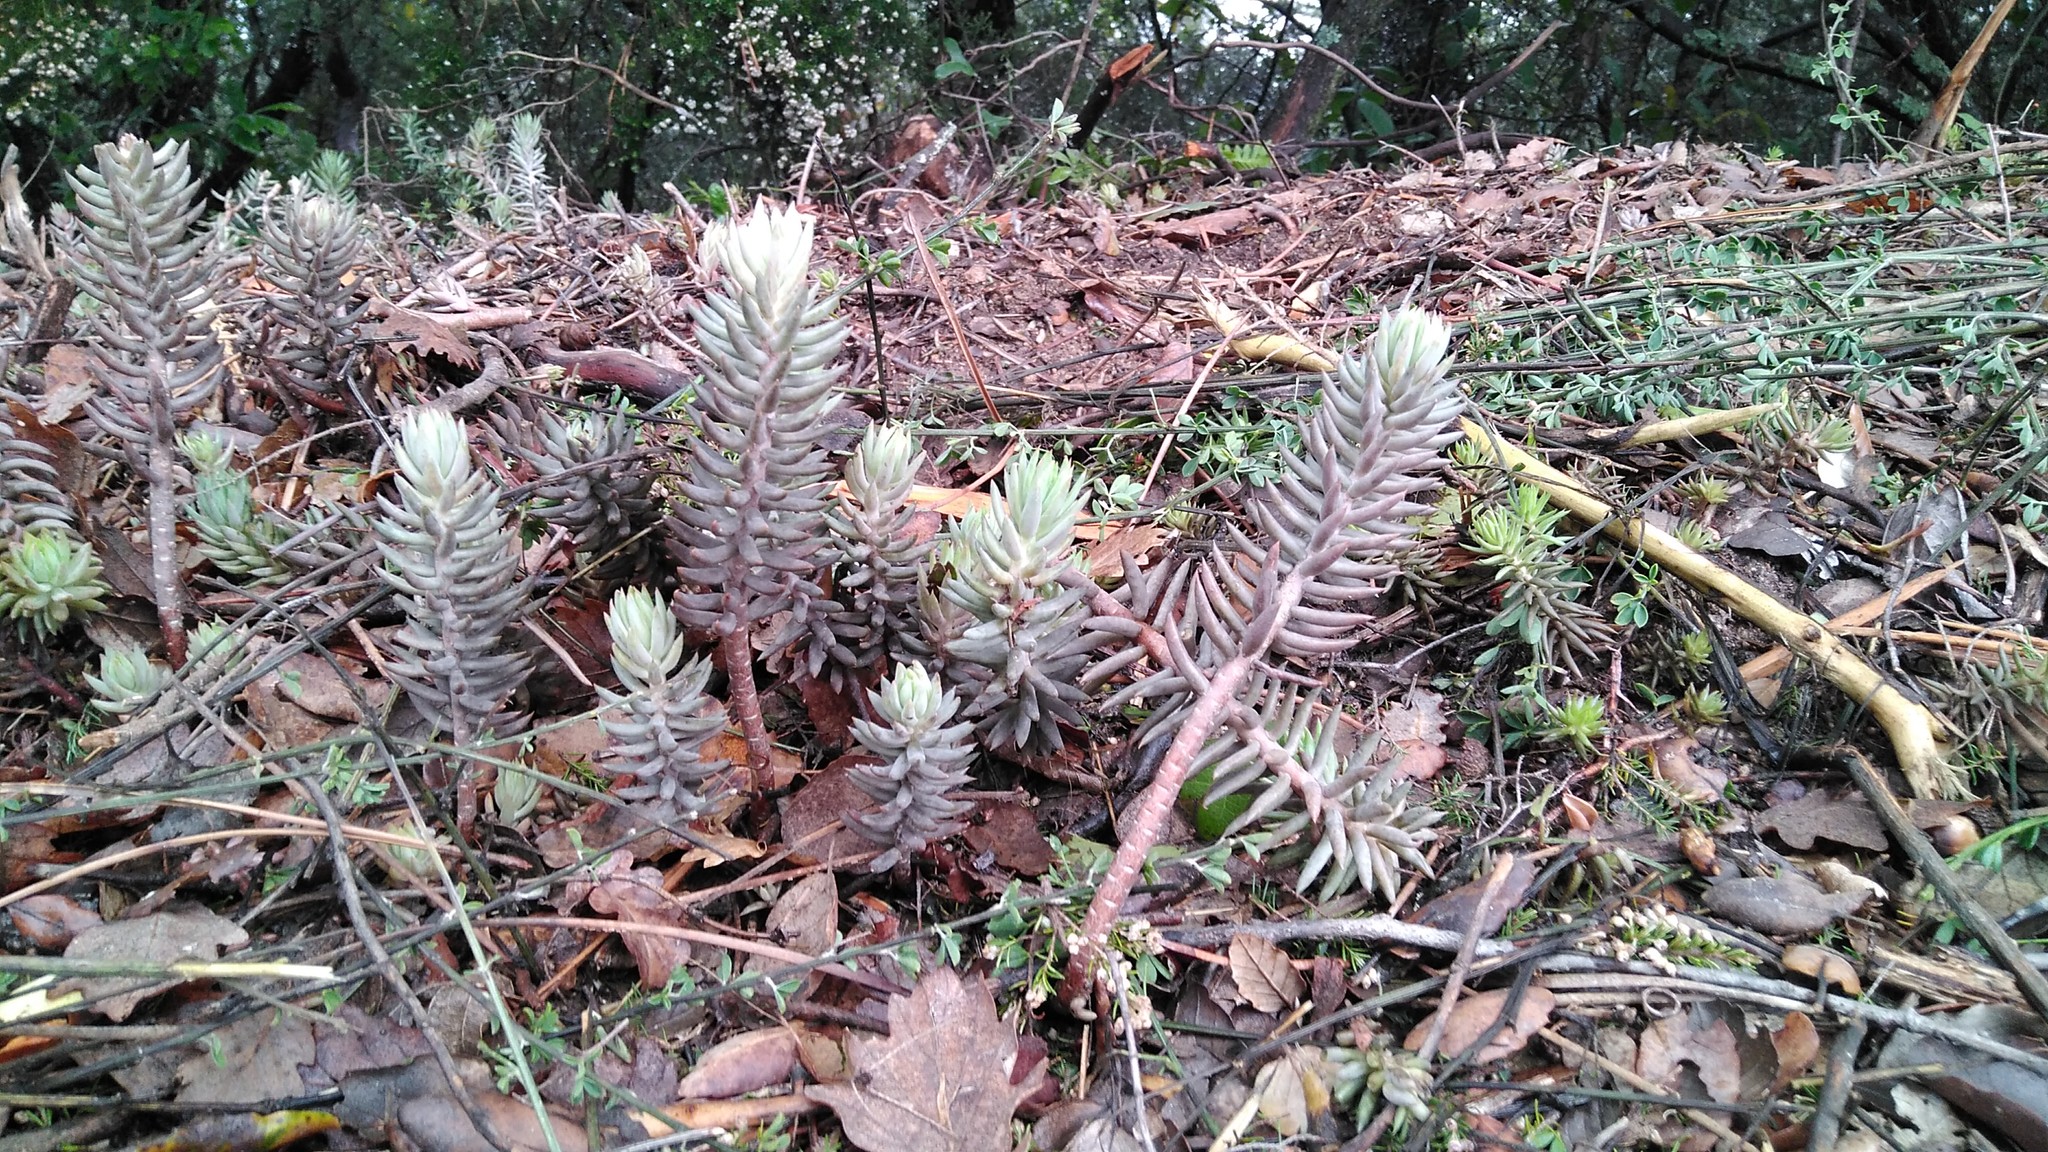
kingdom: Plantae
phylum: Tracheophyta
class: Magnoliopsida
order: Saxifragales
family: Crassulaceae
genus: Petrosedum
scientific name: Petrosedum sediforme
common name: Pale stonecrop
